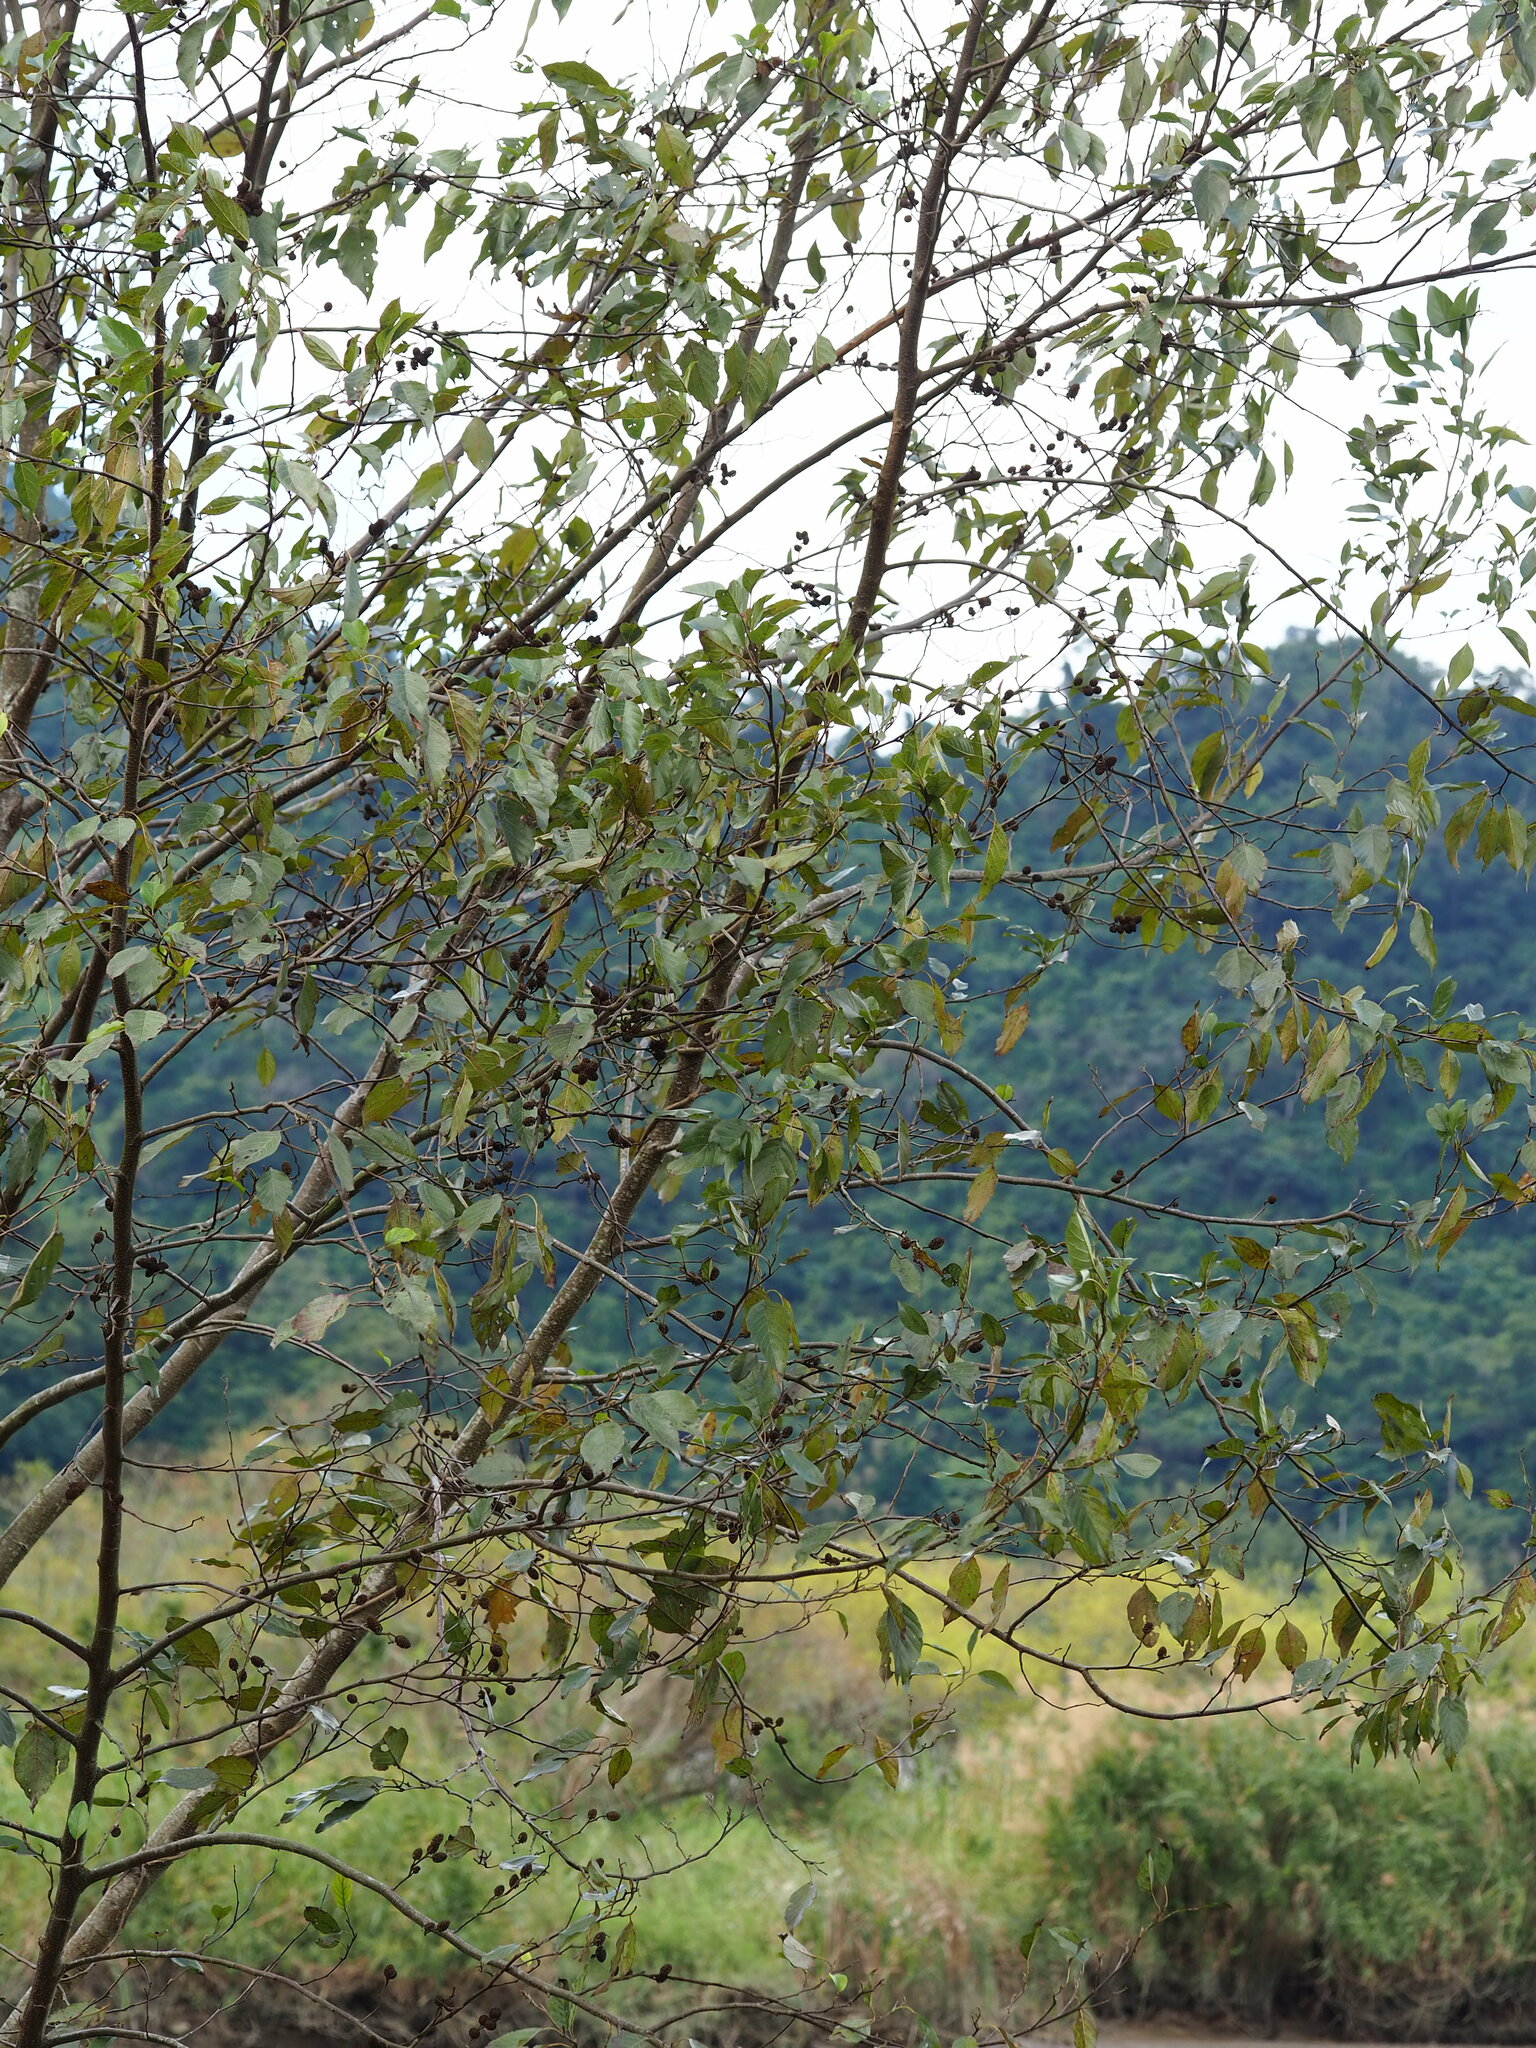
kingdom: Plantae
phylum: Tracheophyta
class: Magnoliopsida
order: Fagales
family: Betulaceae
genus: Alnus
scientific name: Alnus formosana
